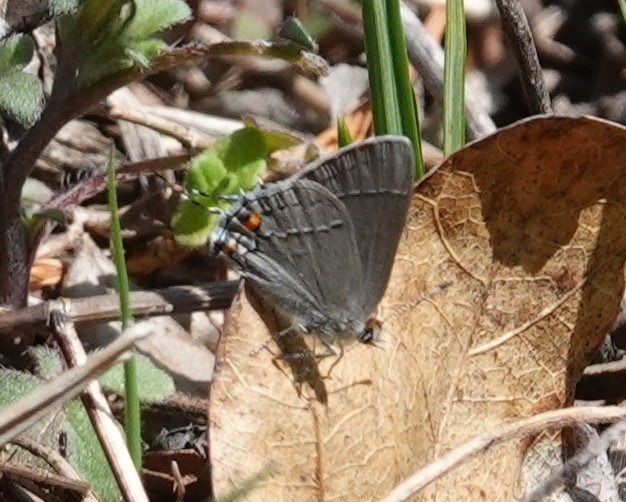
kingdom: Animalia
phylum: Arthropoda
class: Insecta
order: Lepidoptera
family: Lycaenidae
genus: Strymon
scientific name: Strymon melinus
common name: Gray hairstreak
